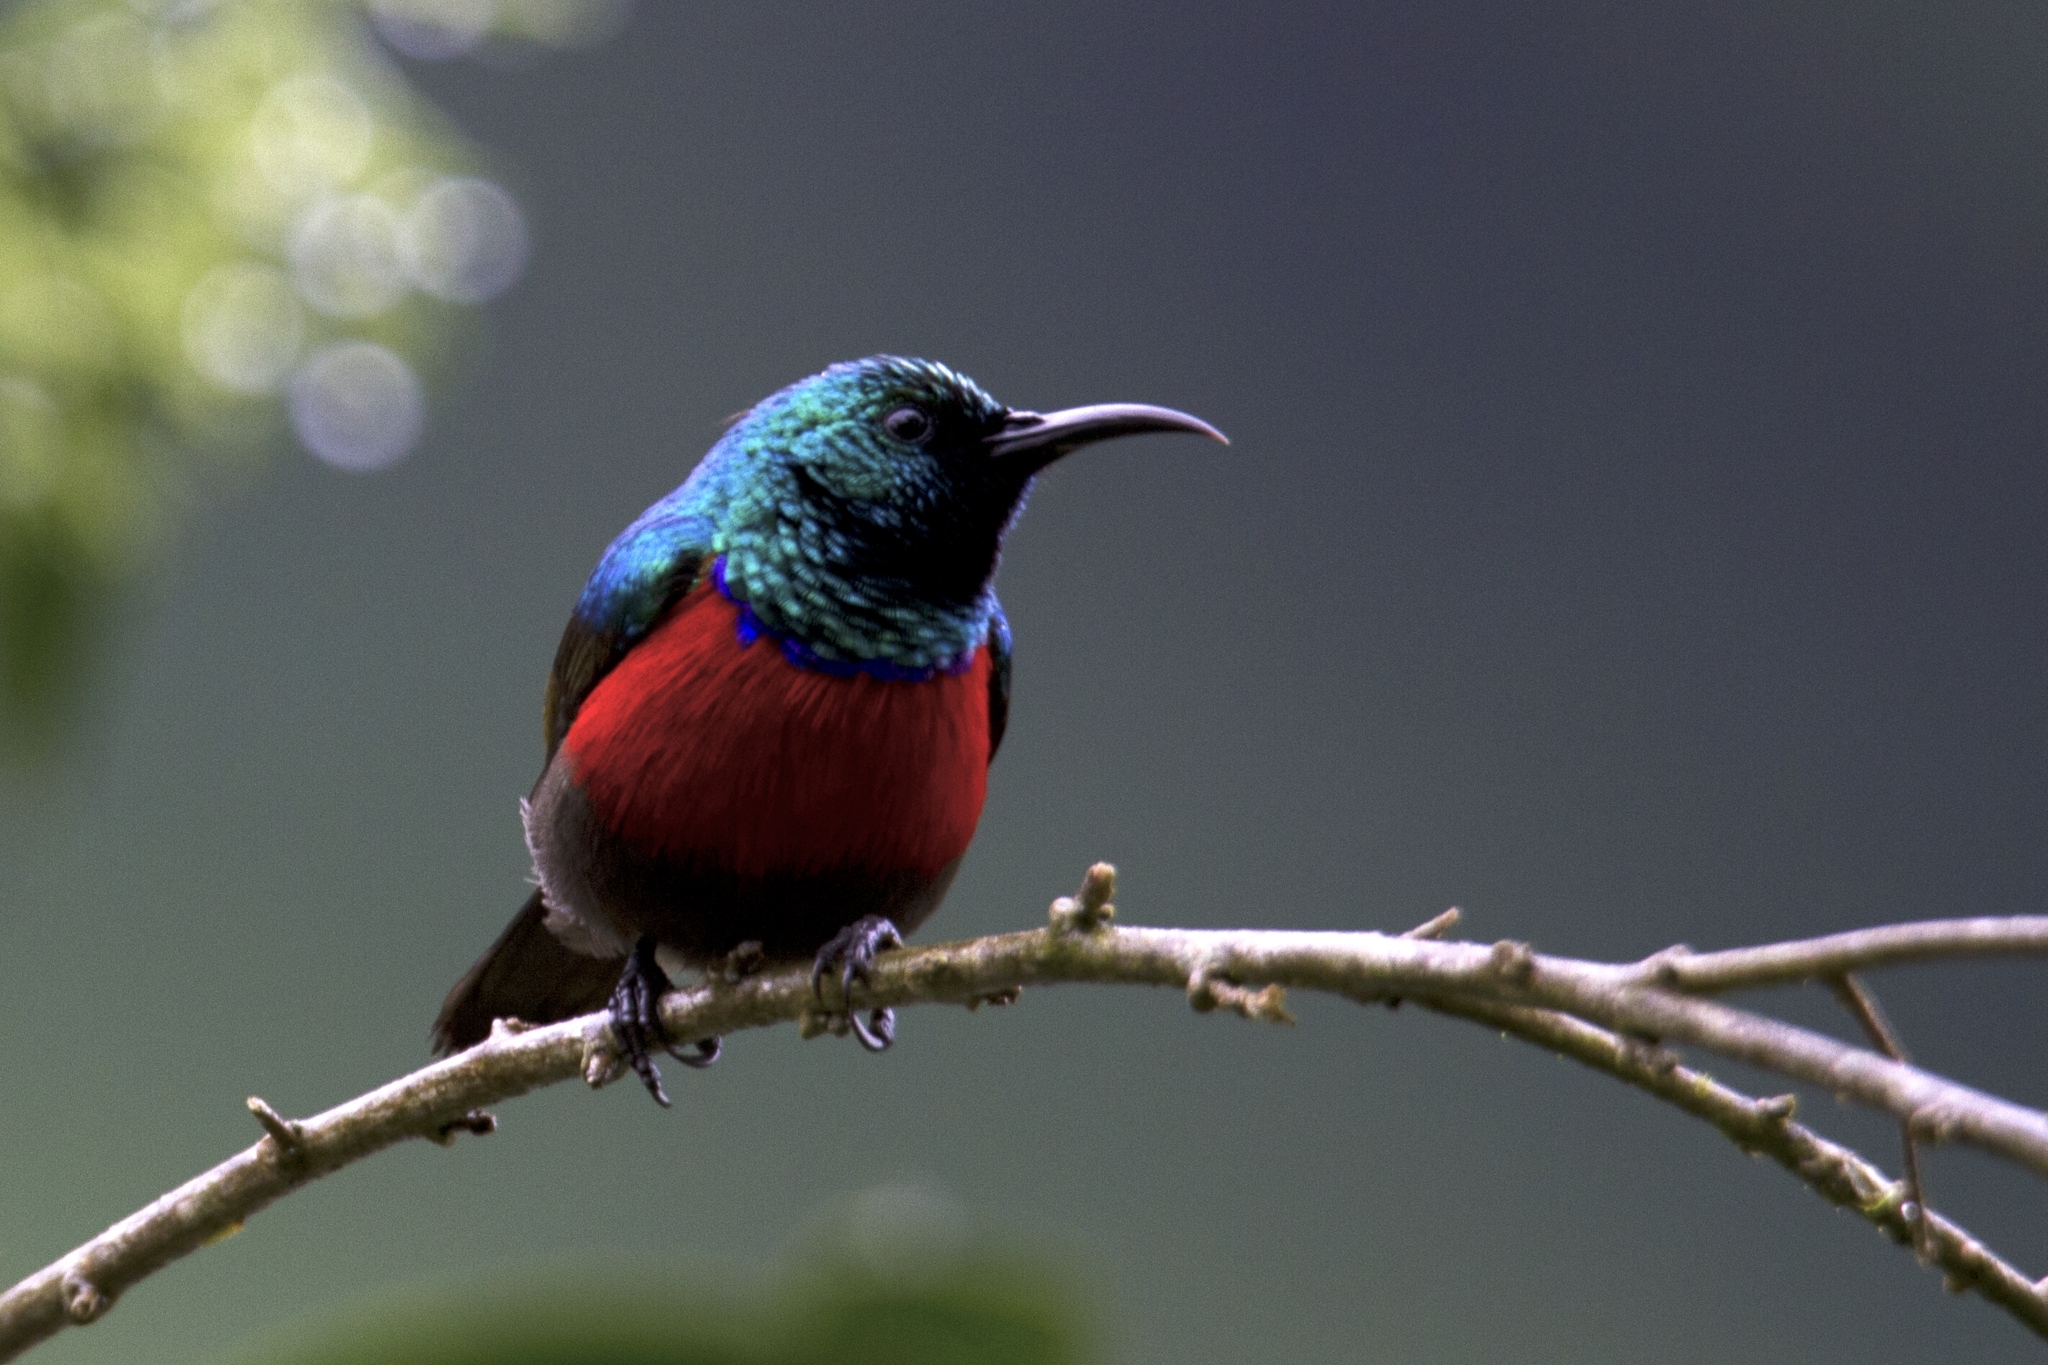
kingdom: Animalia
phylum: Chordata
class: Aves
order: Passeriformes
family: Nectariniidae
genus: Cinnyris
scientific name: Cinnyris reichenowi
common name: Northern double-collared sunbird
